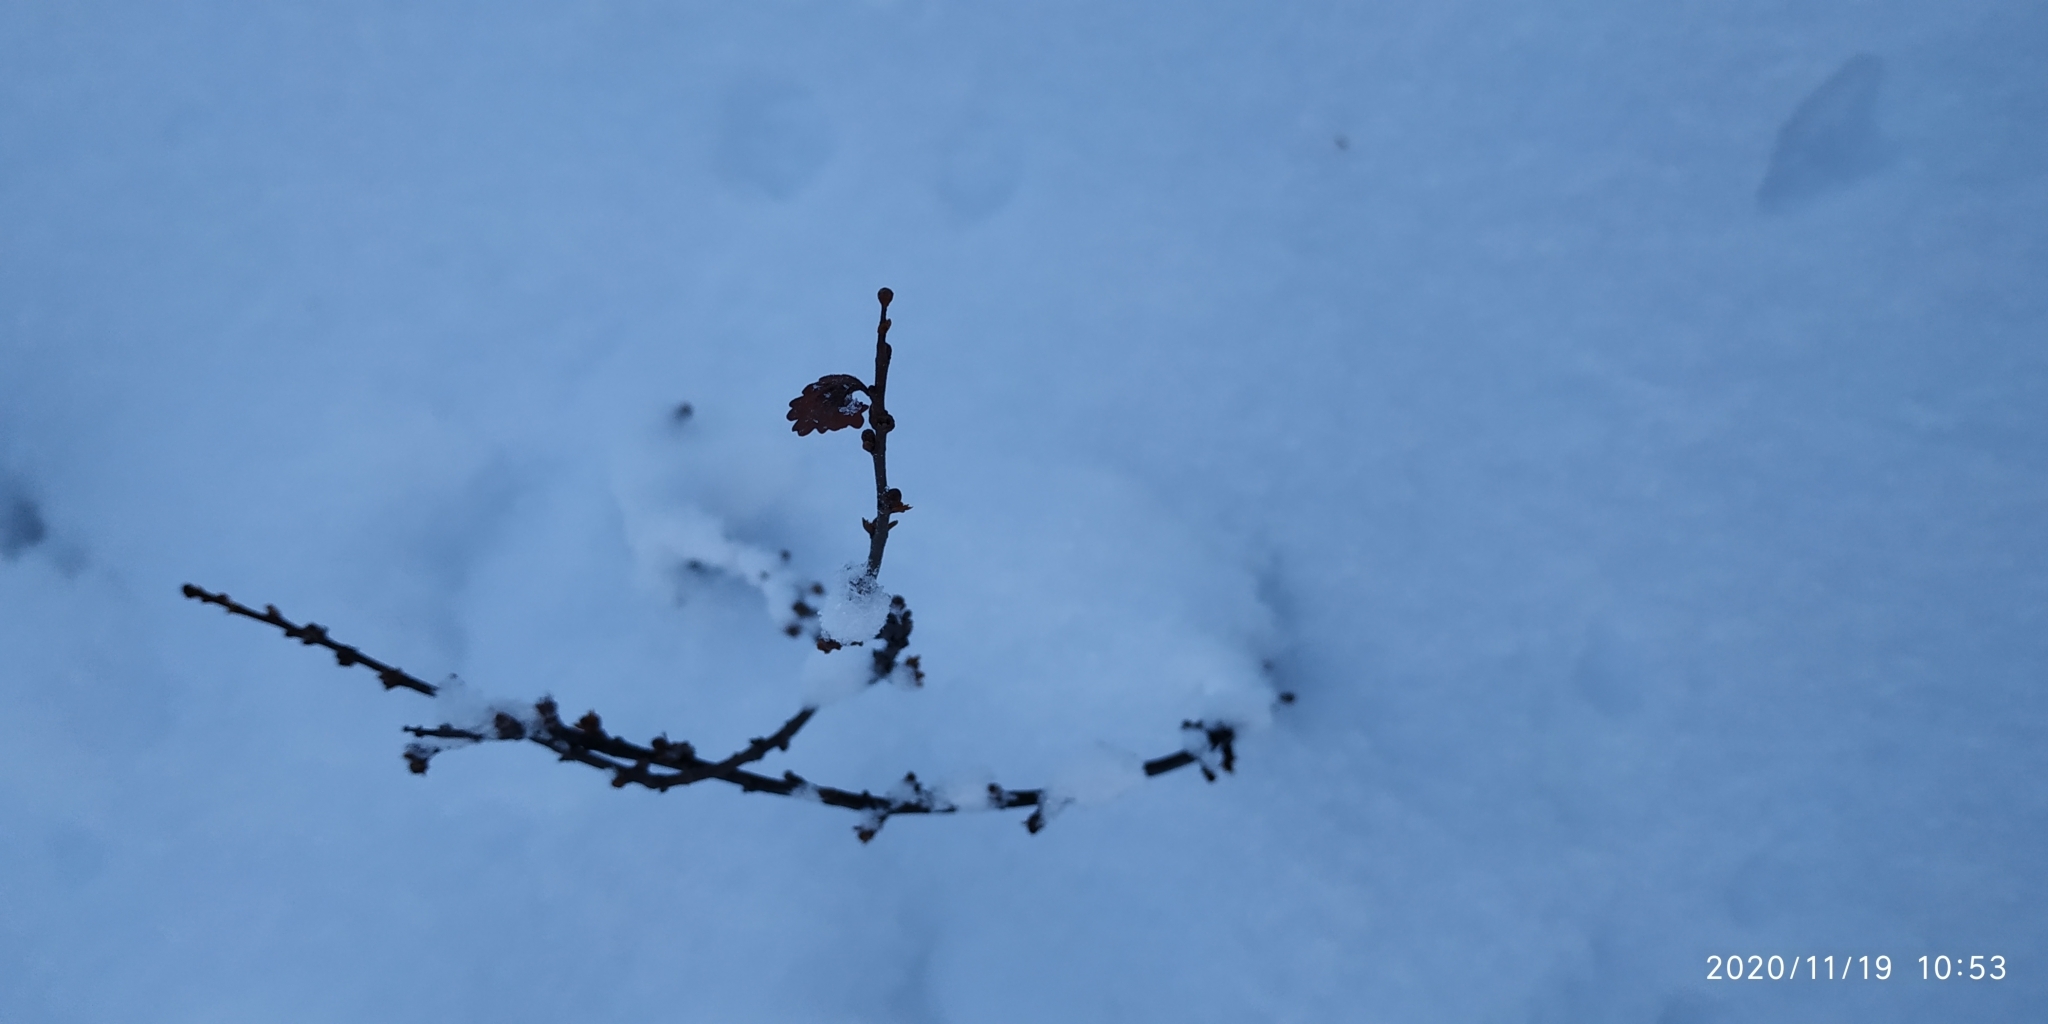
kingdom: Plantae
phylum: Tracheophyta
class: Magnoliopsida
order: Fagales
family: Betulaceae
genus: Betula
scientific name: Betula nana
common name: Arctic dwarf birch
